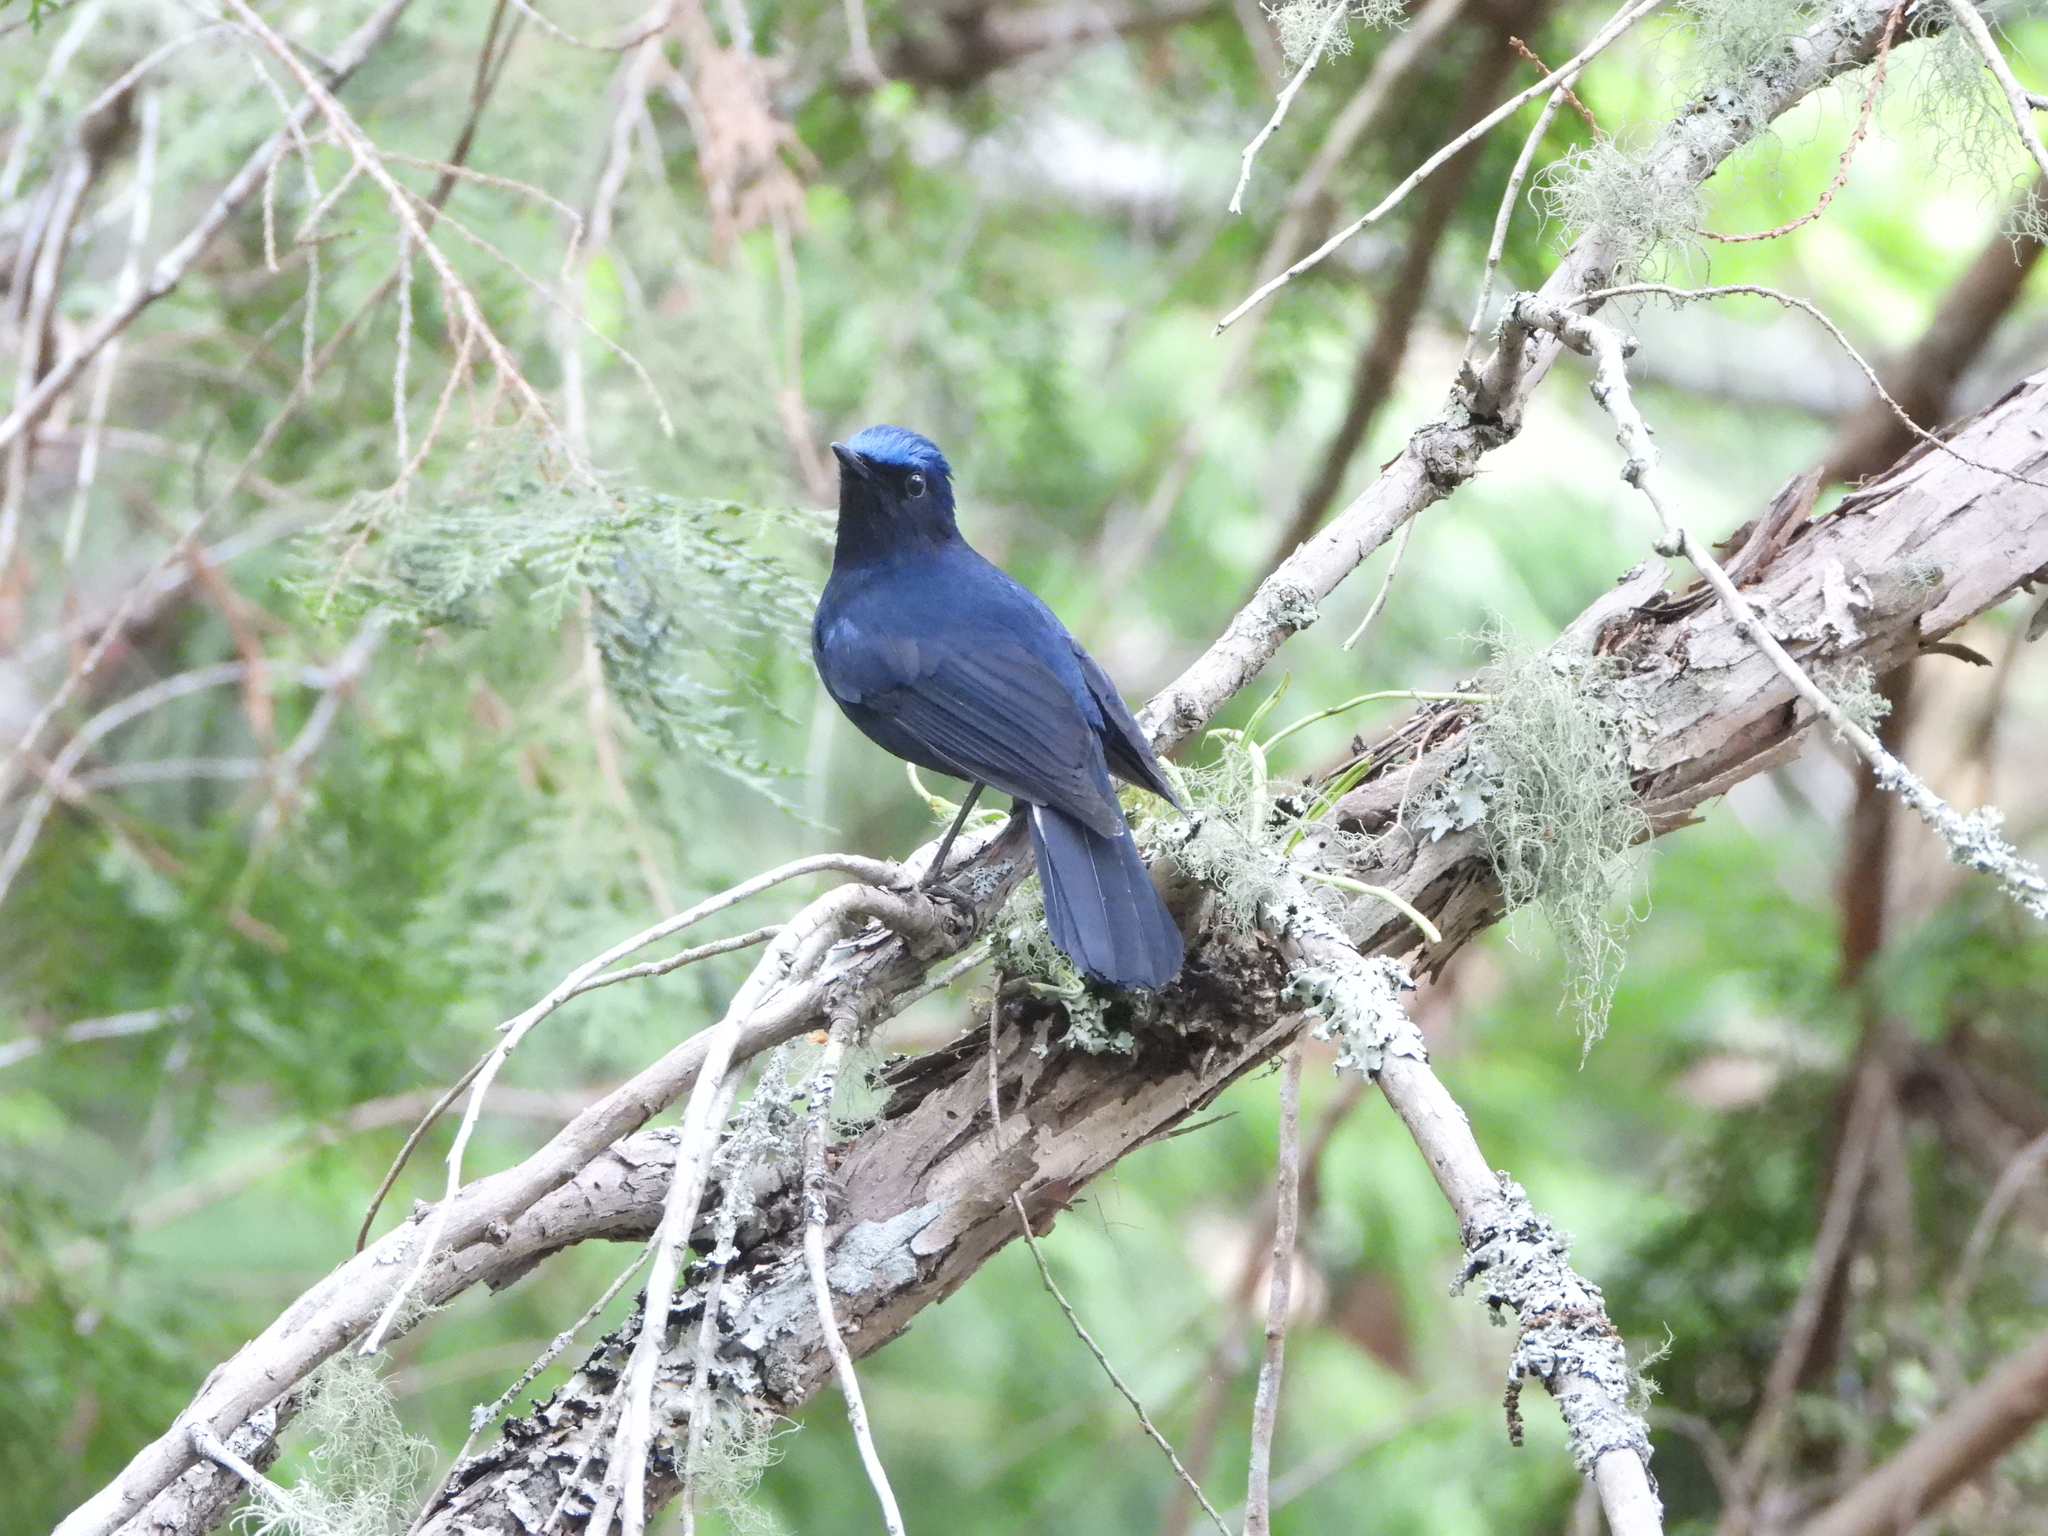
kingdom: Animalia
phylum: Chordata
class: Aves
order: Passeriformes
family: Muscicapidae
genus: Myiomela
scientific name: Myiomela leucura
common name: White-tailed robin
